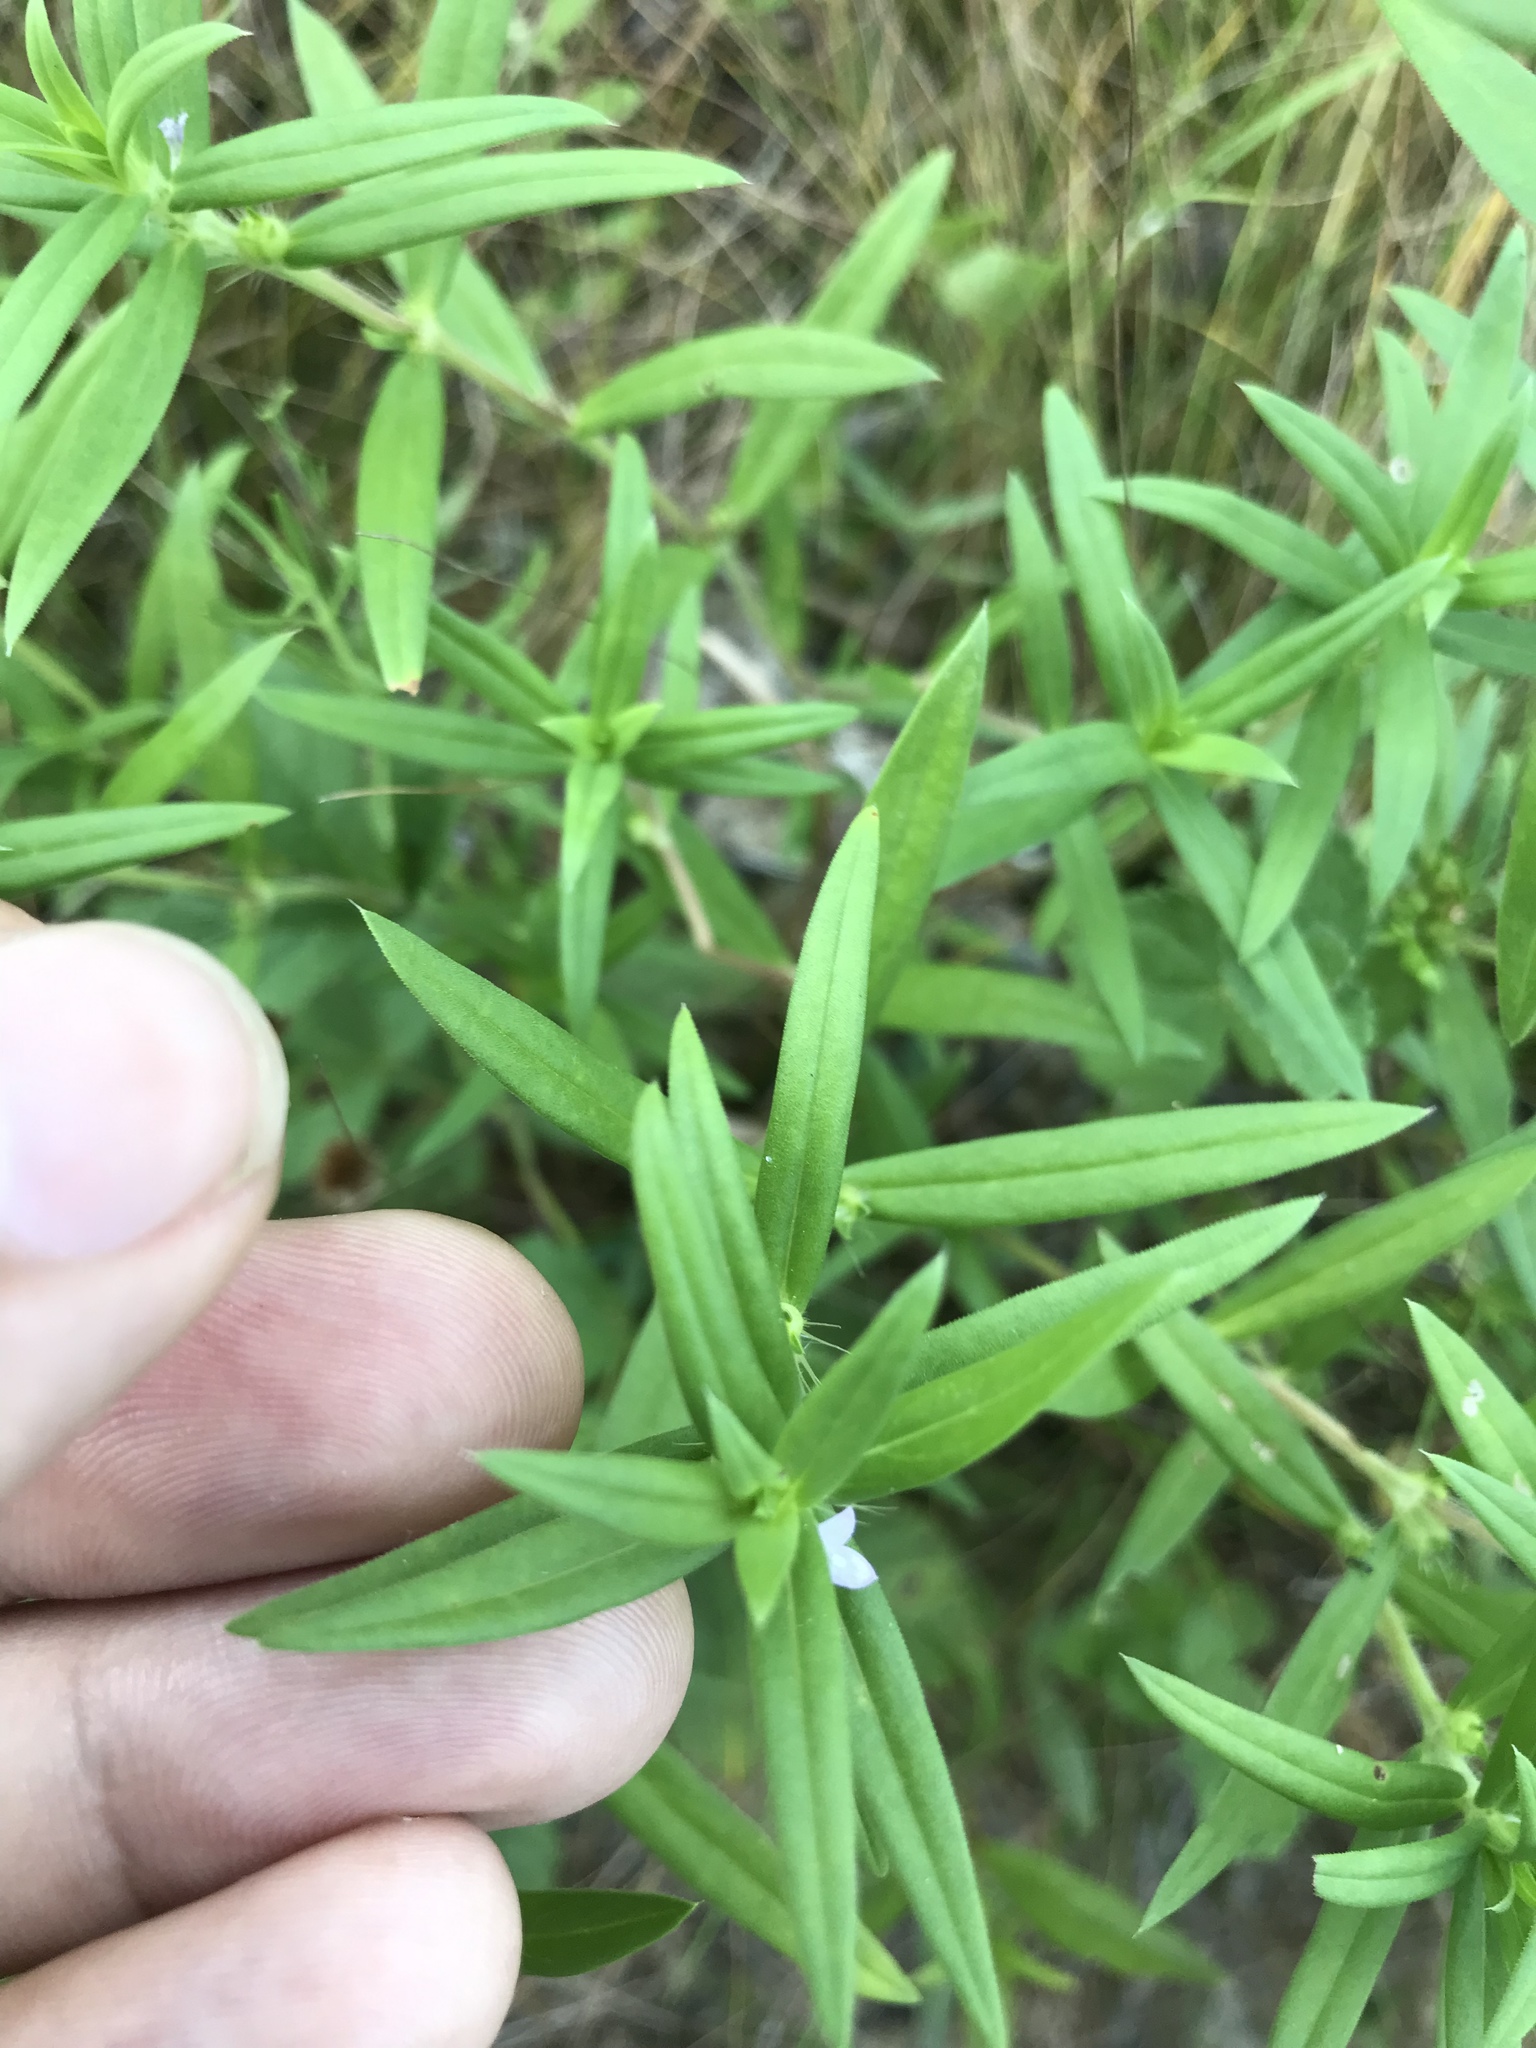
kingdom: Plantae
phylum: Tracheophyta
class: Magnoliopsida
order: Gentianales
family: Rubiaceae
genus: Hexasepalum
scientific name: Hexasepalum teres
